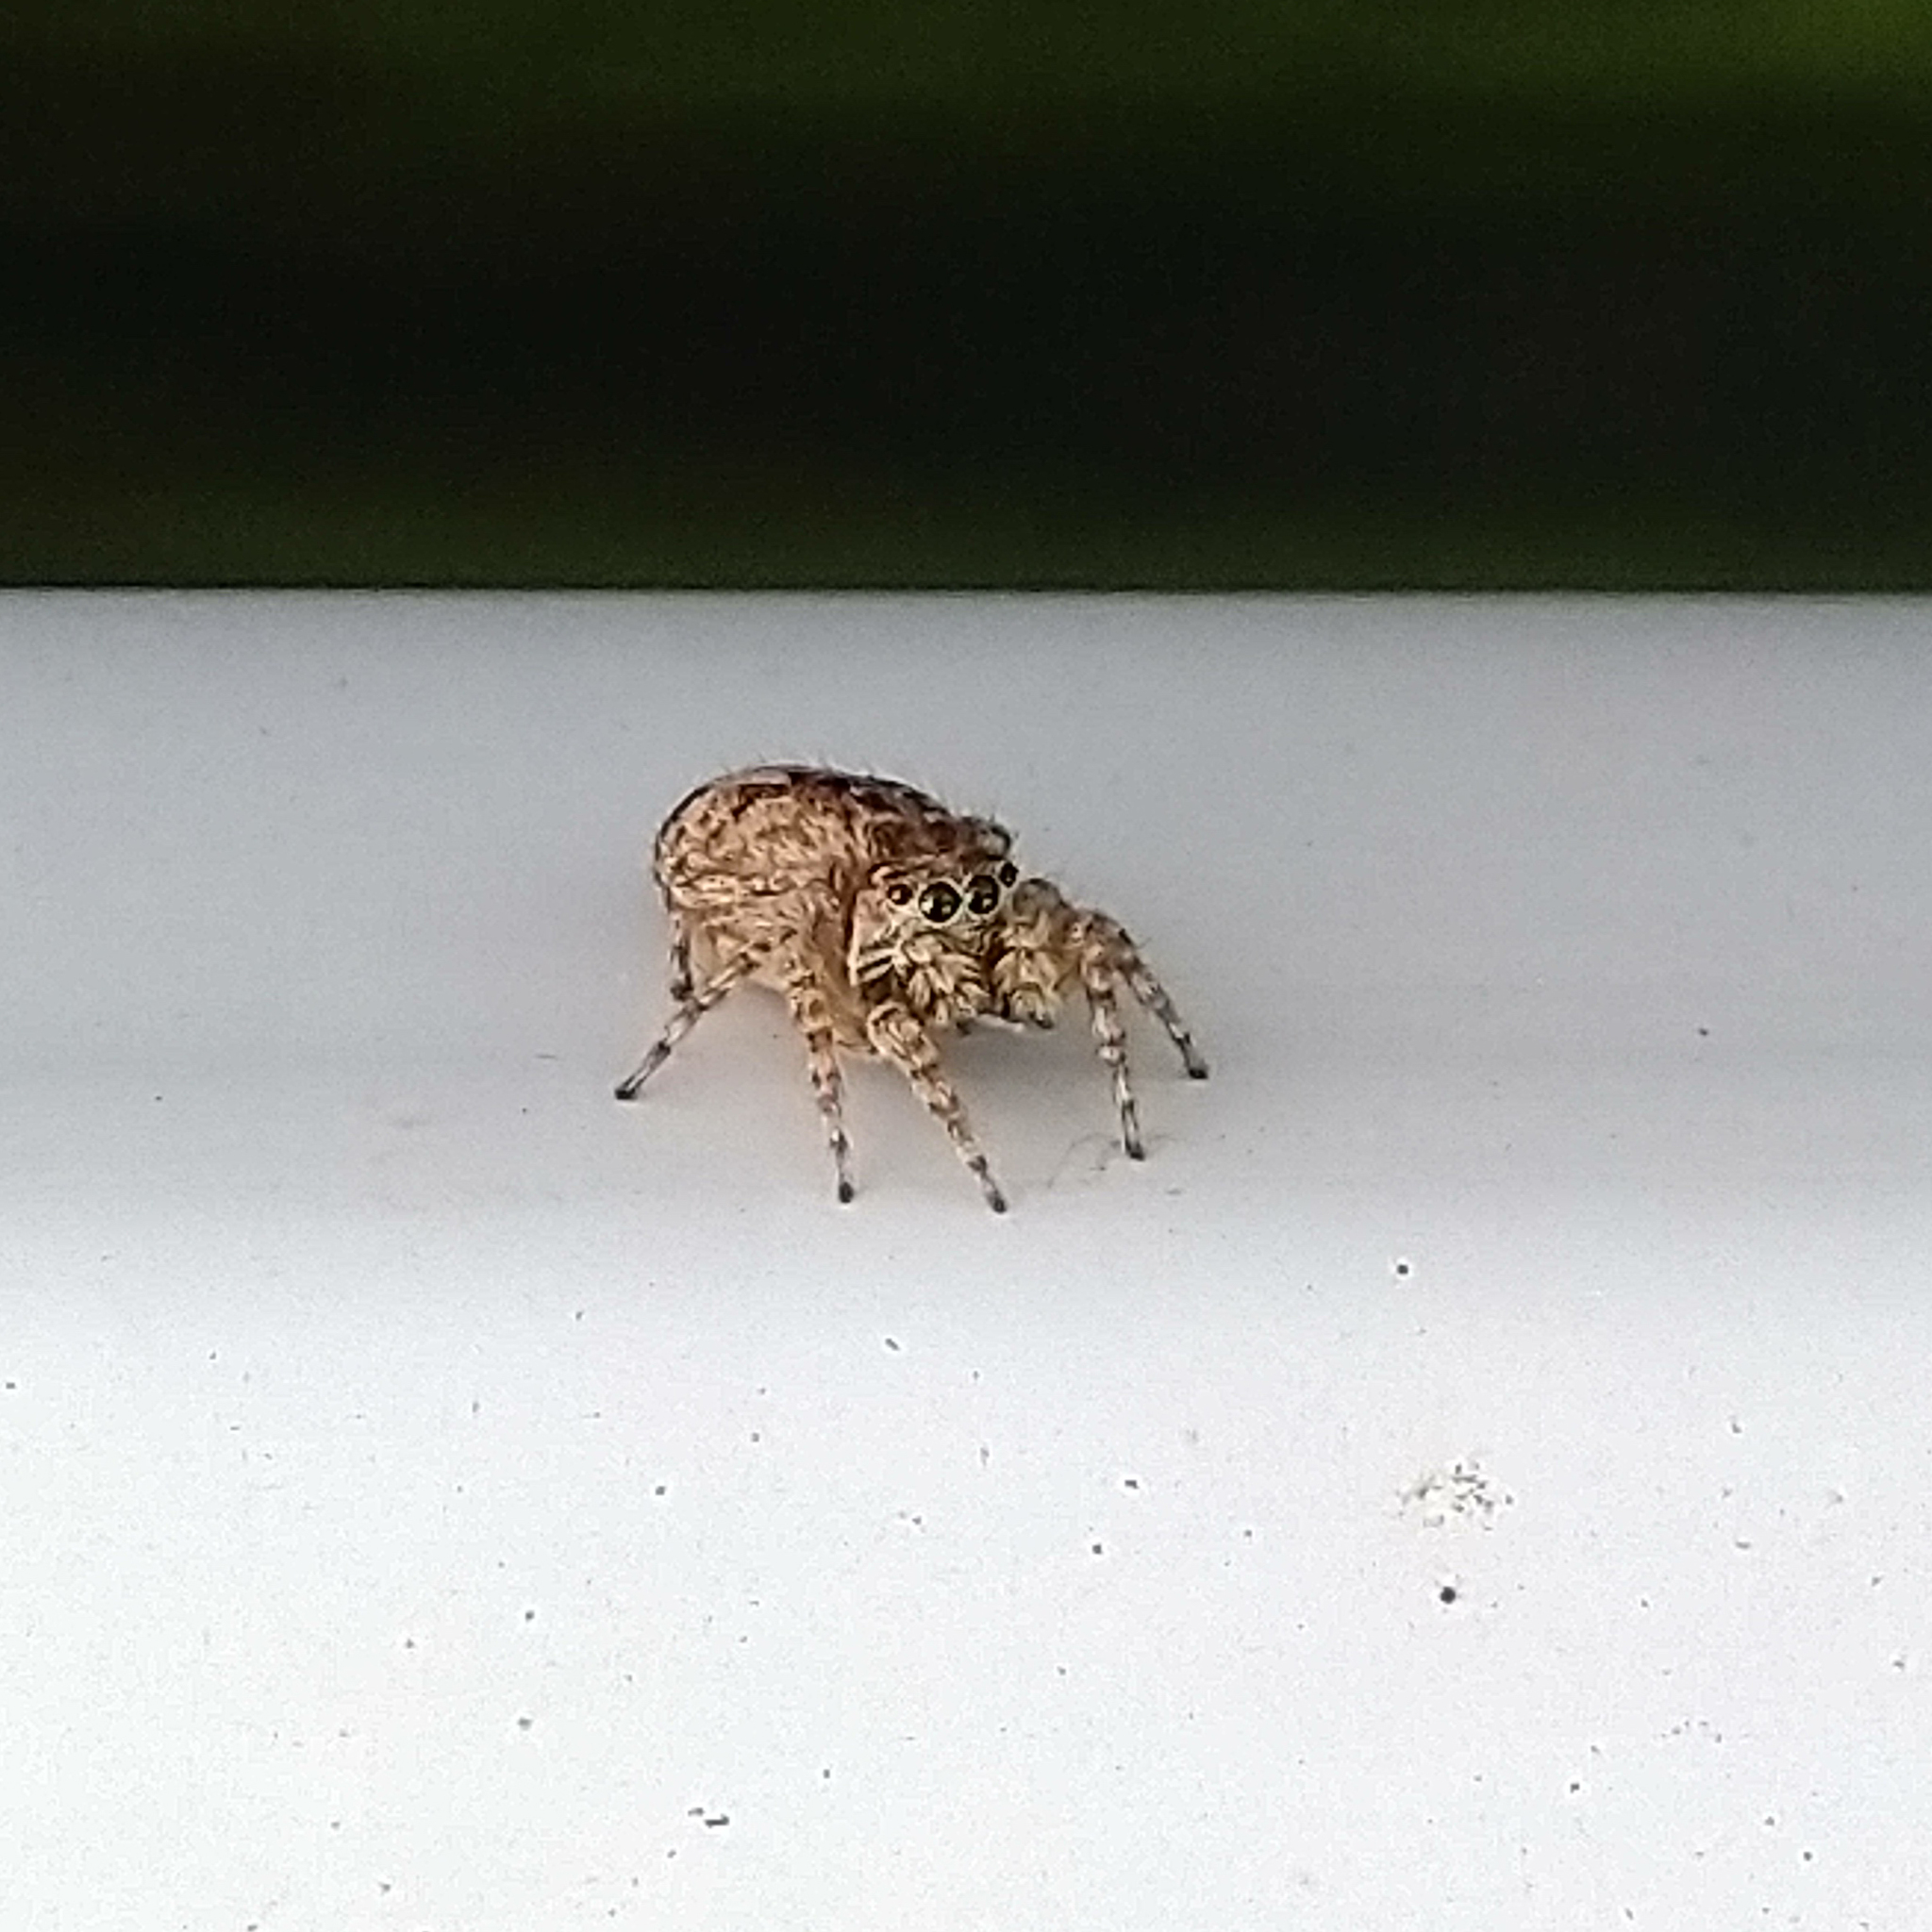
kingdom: Animalia
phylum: Arthropoda
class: Arachnida
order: Araneae
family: Salticidae
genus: Attulus
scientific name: Attulus fasciger
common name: Asiatic wall jumping spider
